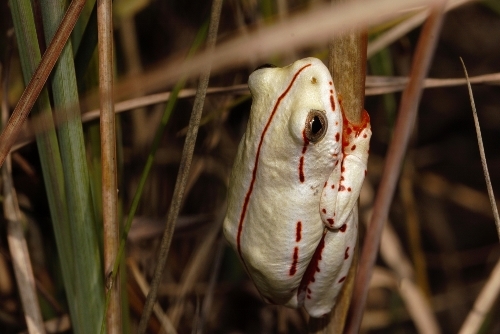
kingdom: Animalia
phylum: Chordata
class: Amphibia
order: Anura
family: Hyperoliidae
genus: Hyperolius
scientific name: Hyperolius marmoratus
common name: Painted reed frog
